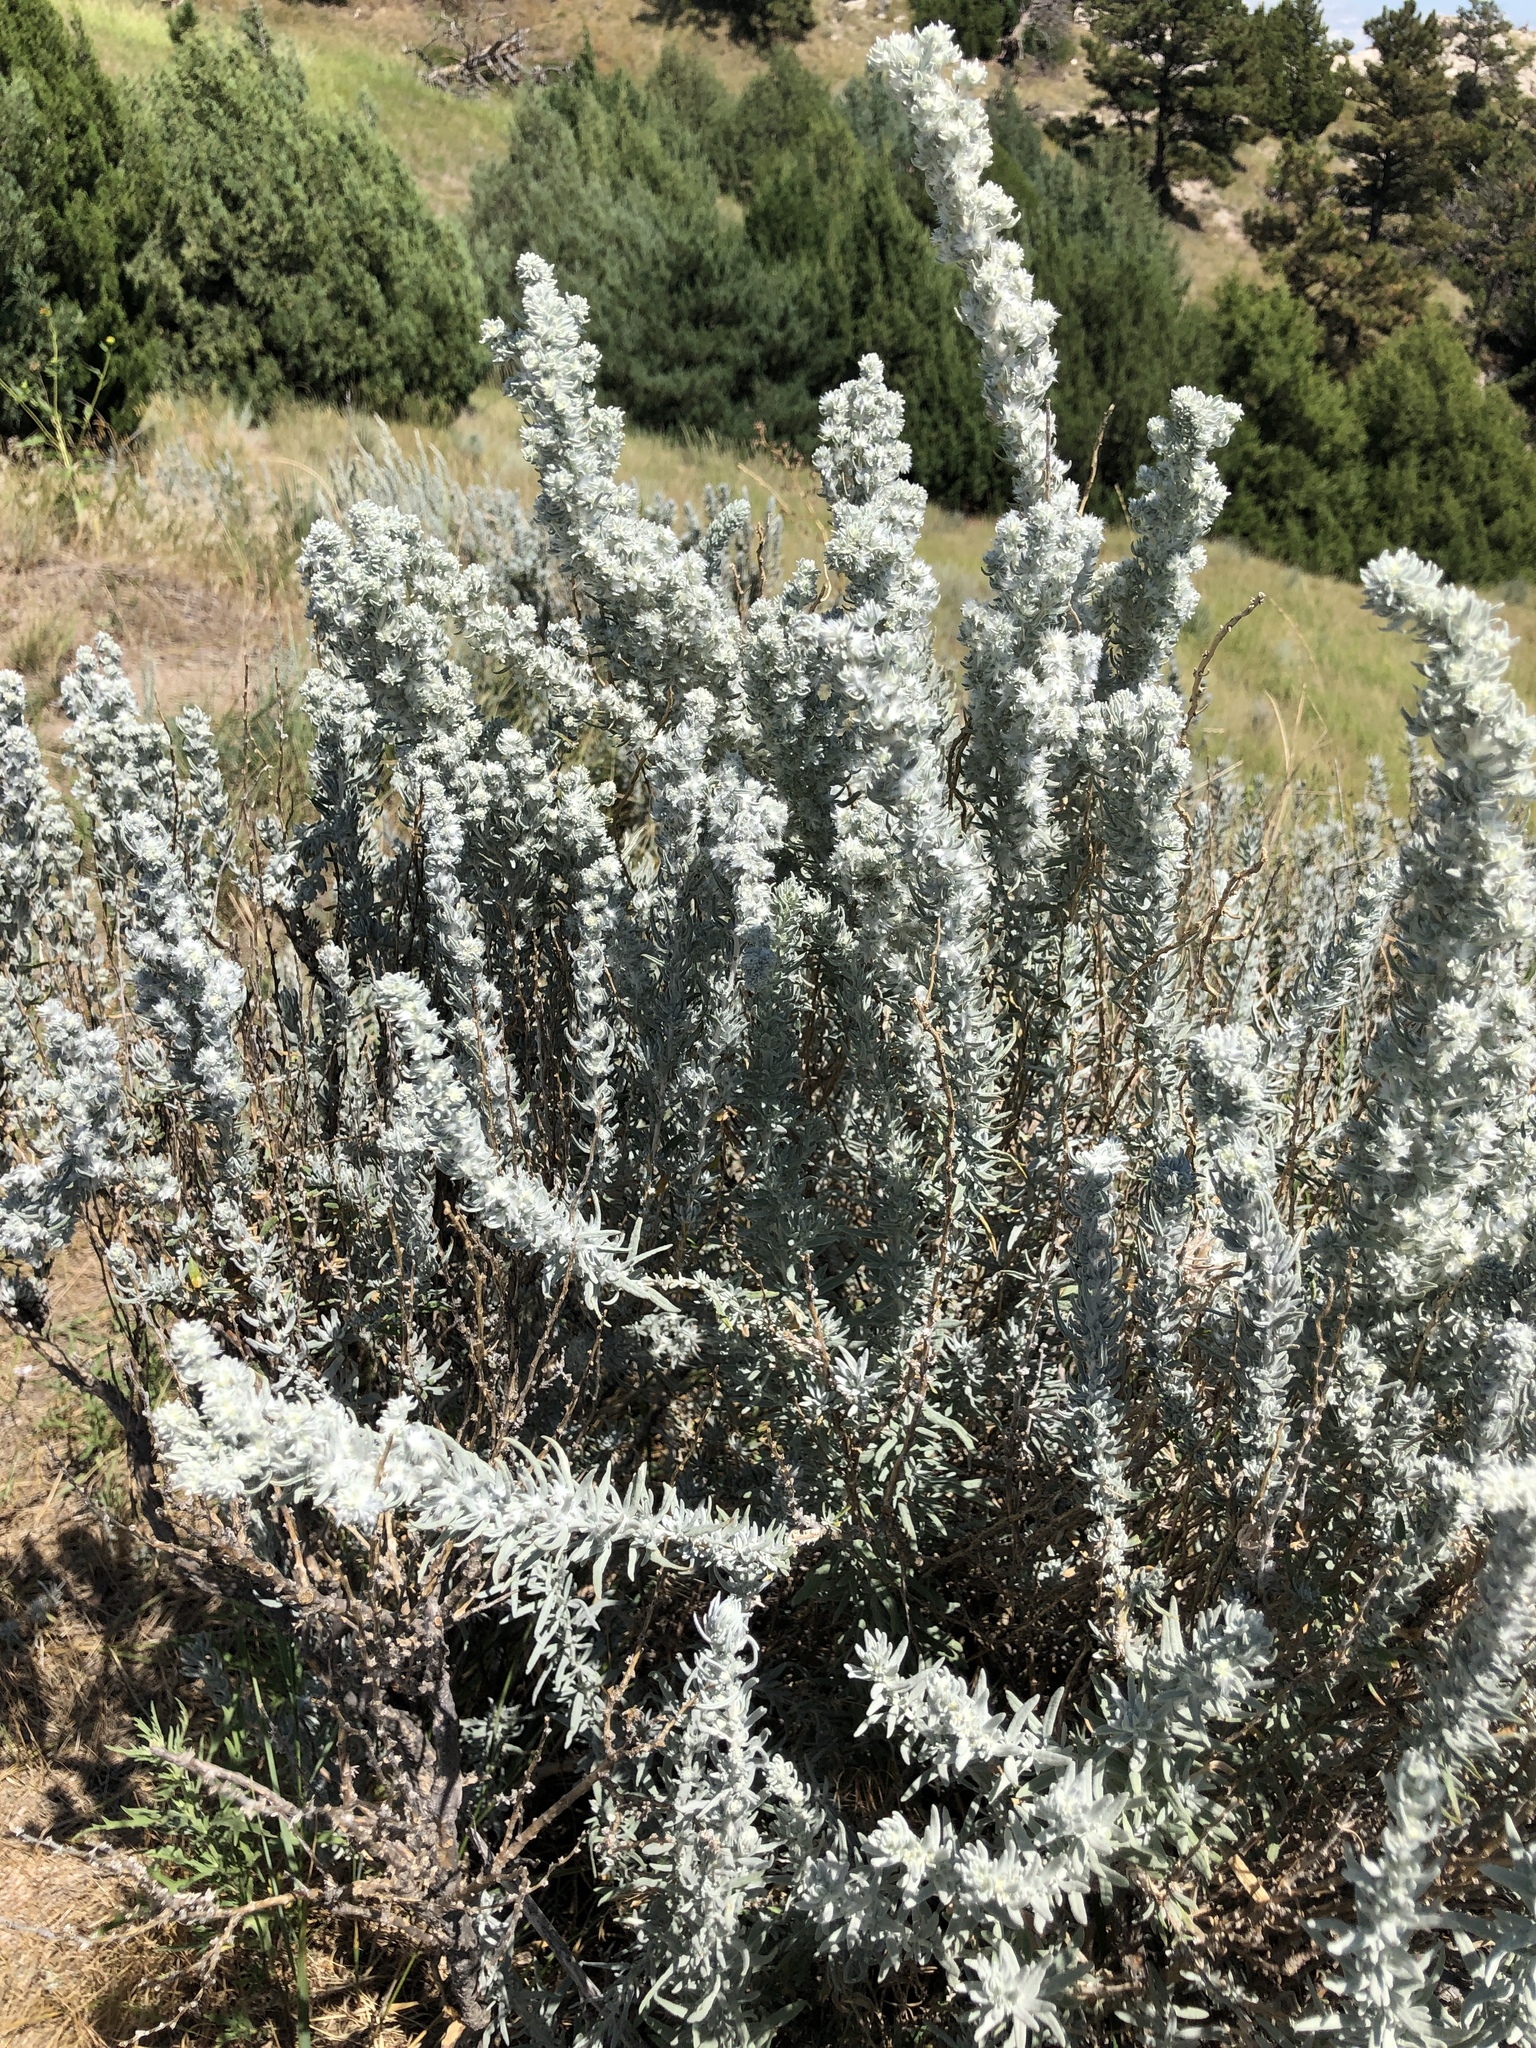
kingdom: Plantae
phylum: Tracheophyta
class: Magnoliopsida
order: Caryophyllales
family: Amaranthaceae
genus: Krascheninnikovia
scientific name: Krascheninnikovia lanata
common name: Winterfat
